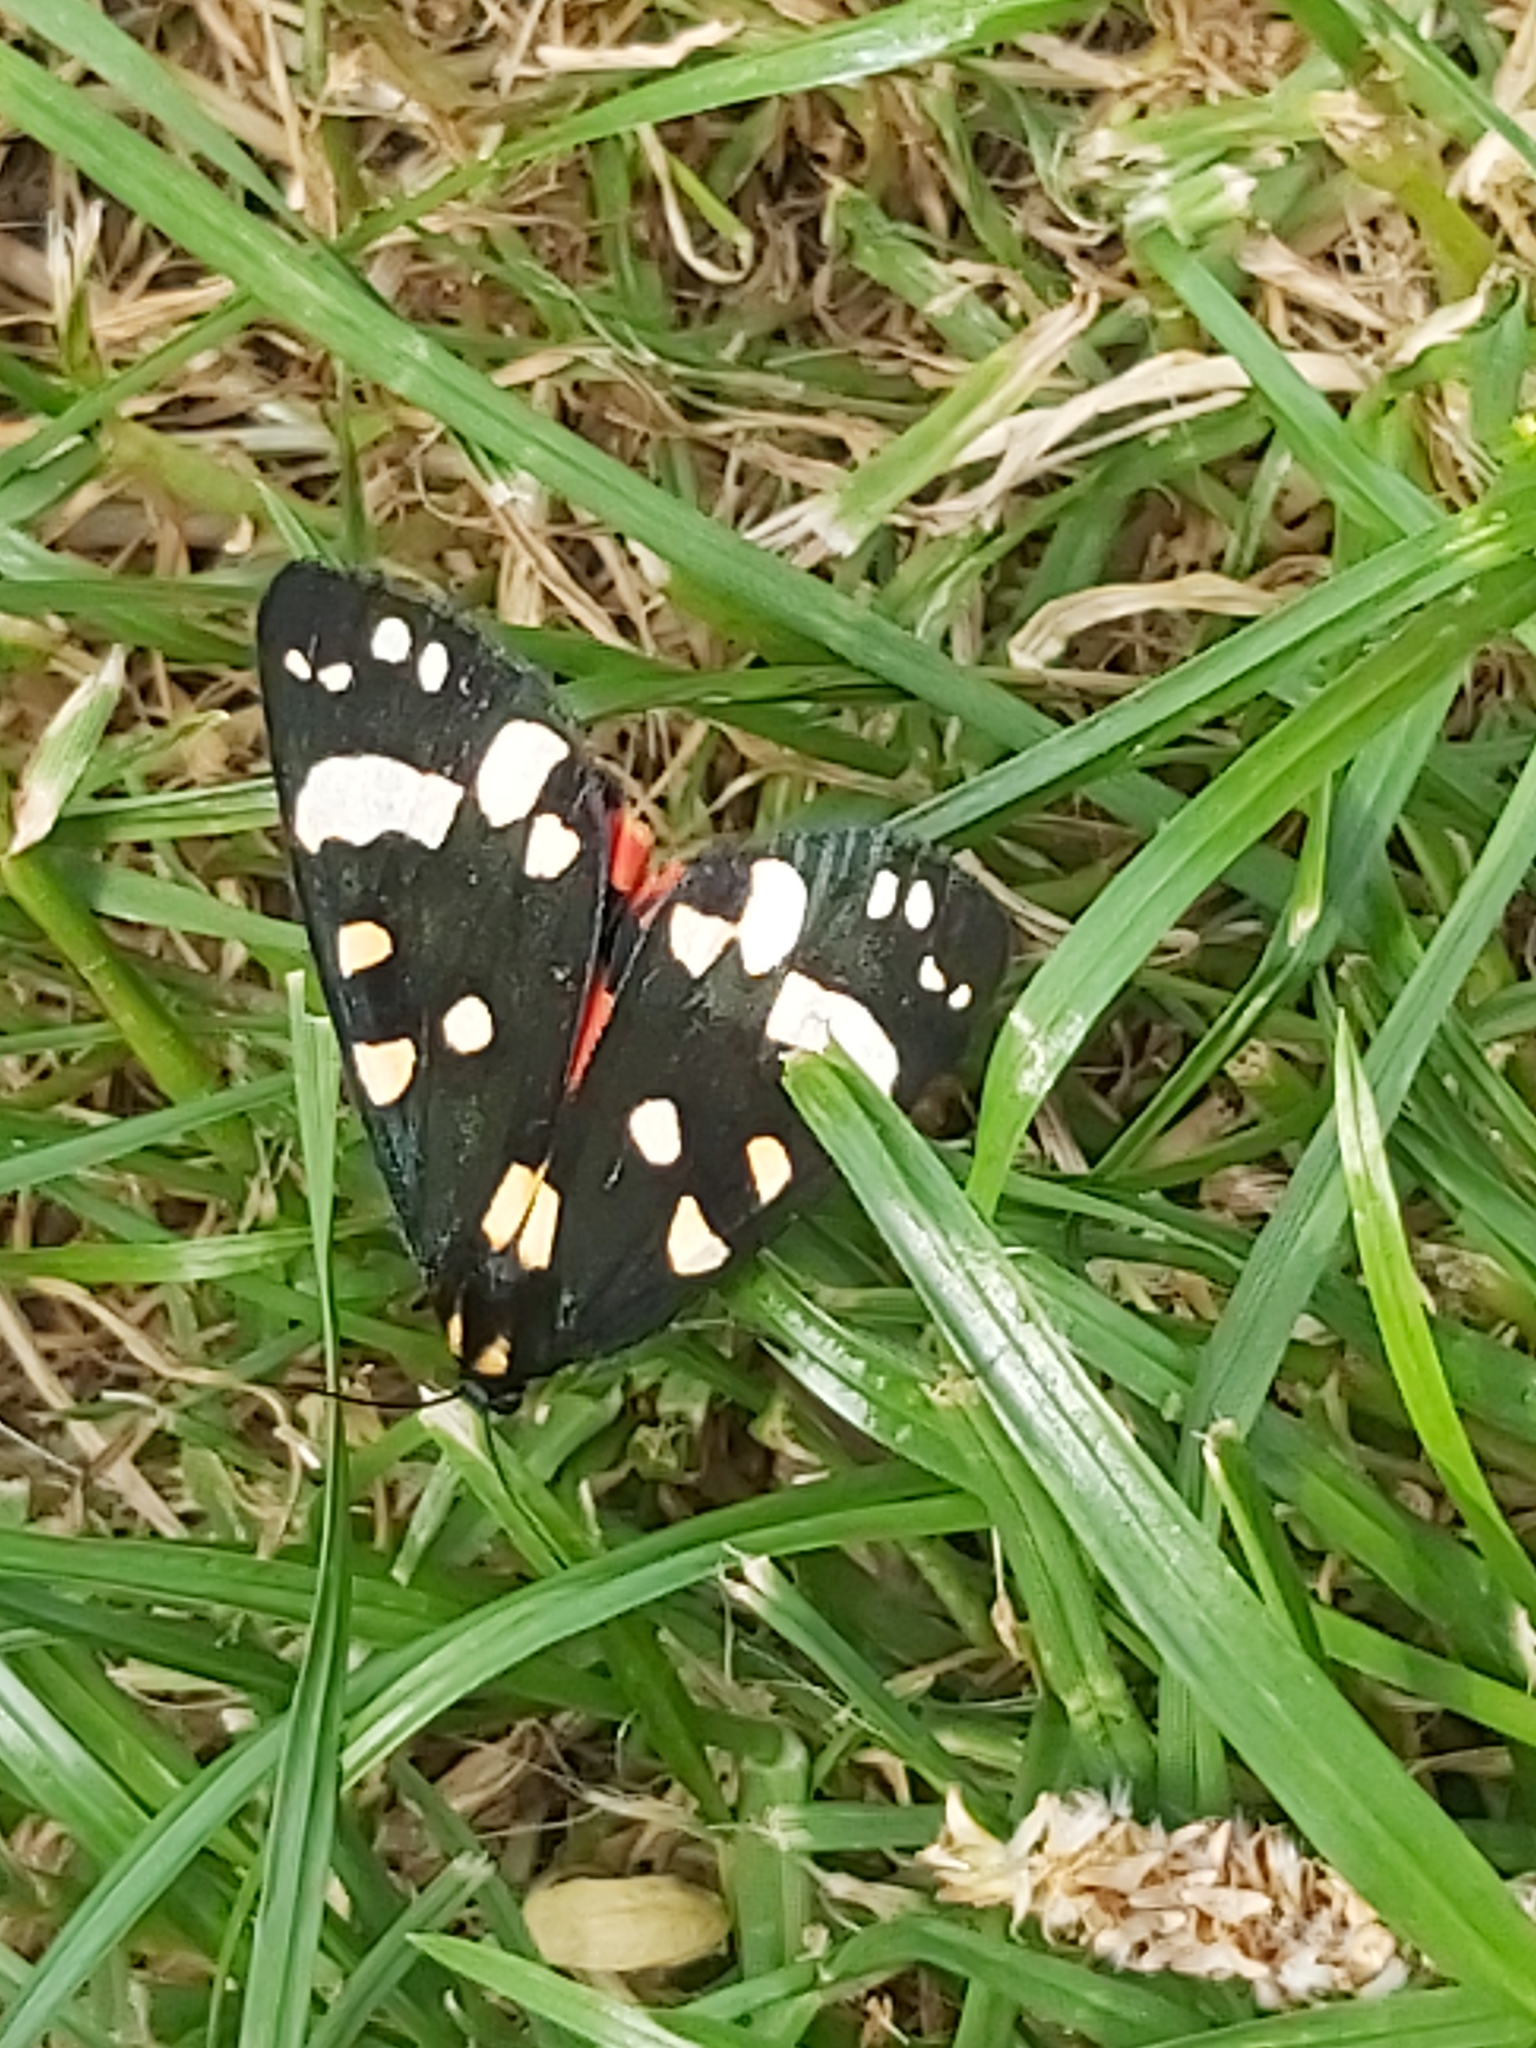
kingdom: Animalia
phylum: Arthropoda
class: Insecta
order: Lepidoptera
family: Erebidae
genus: Callimorpha
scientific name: Callimorpha dominula
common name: Scarlet tiger
